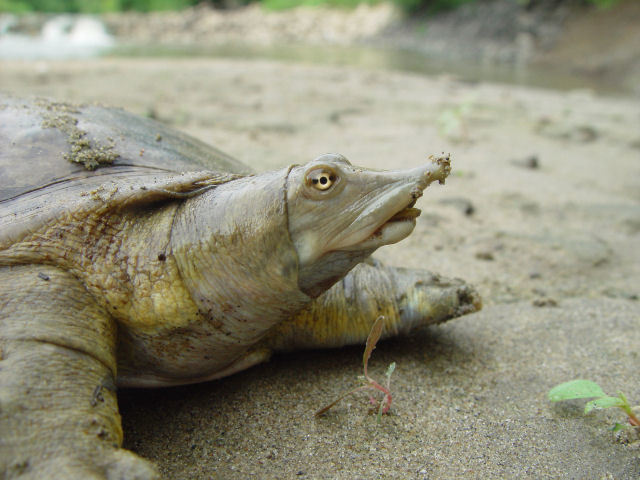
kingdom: Animalia
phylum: Chordata
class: Testudines
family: Trionychidae
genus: Apalone
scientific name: Apalone mutica
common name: Smooth softshell turtle
